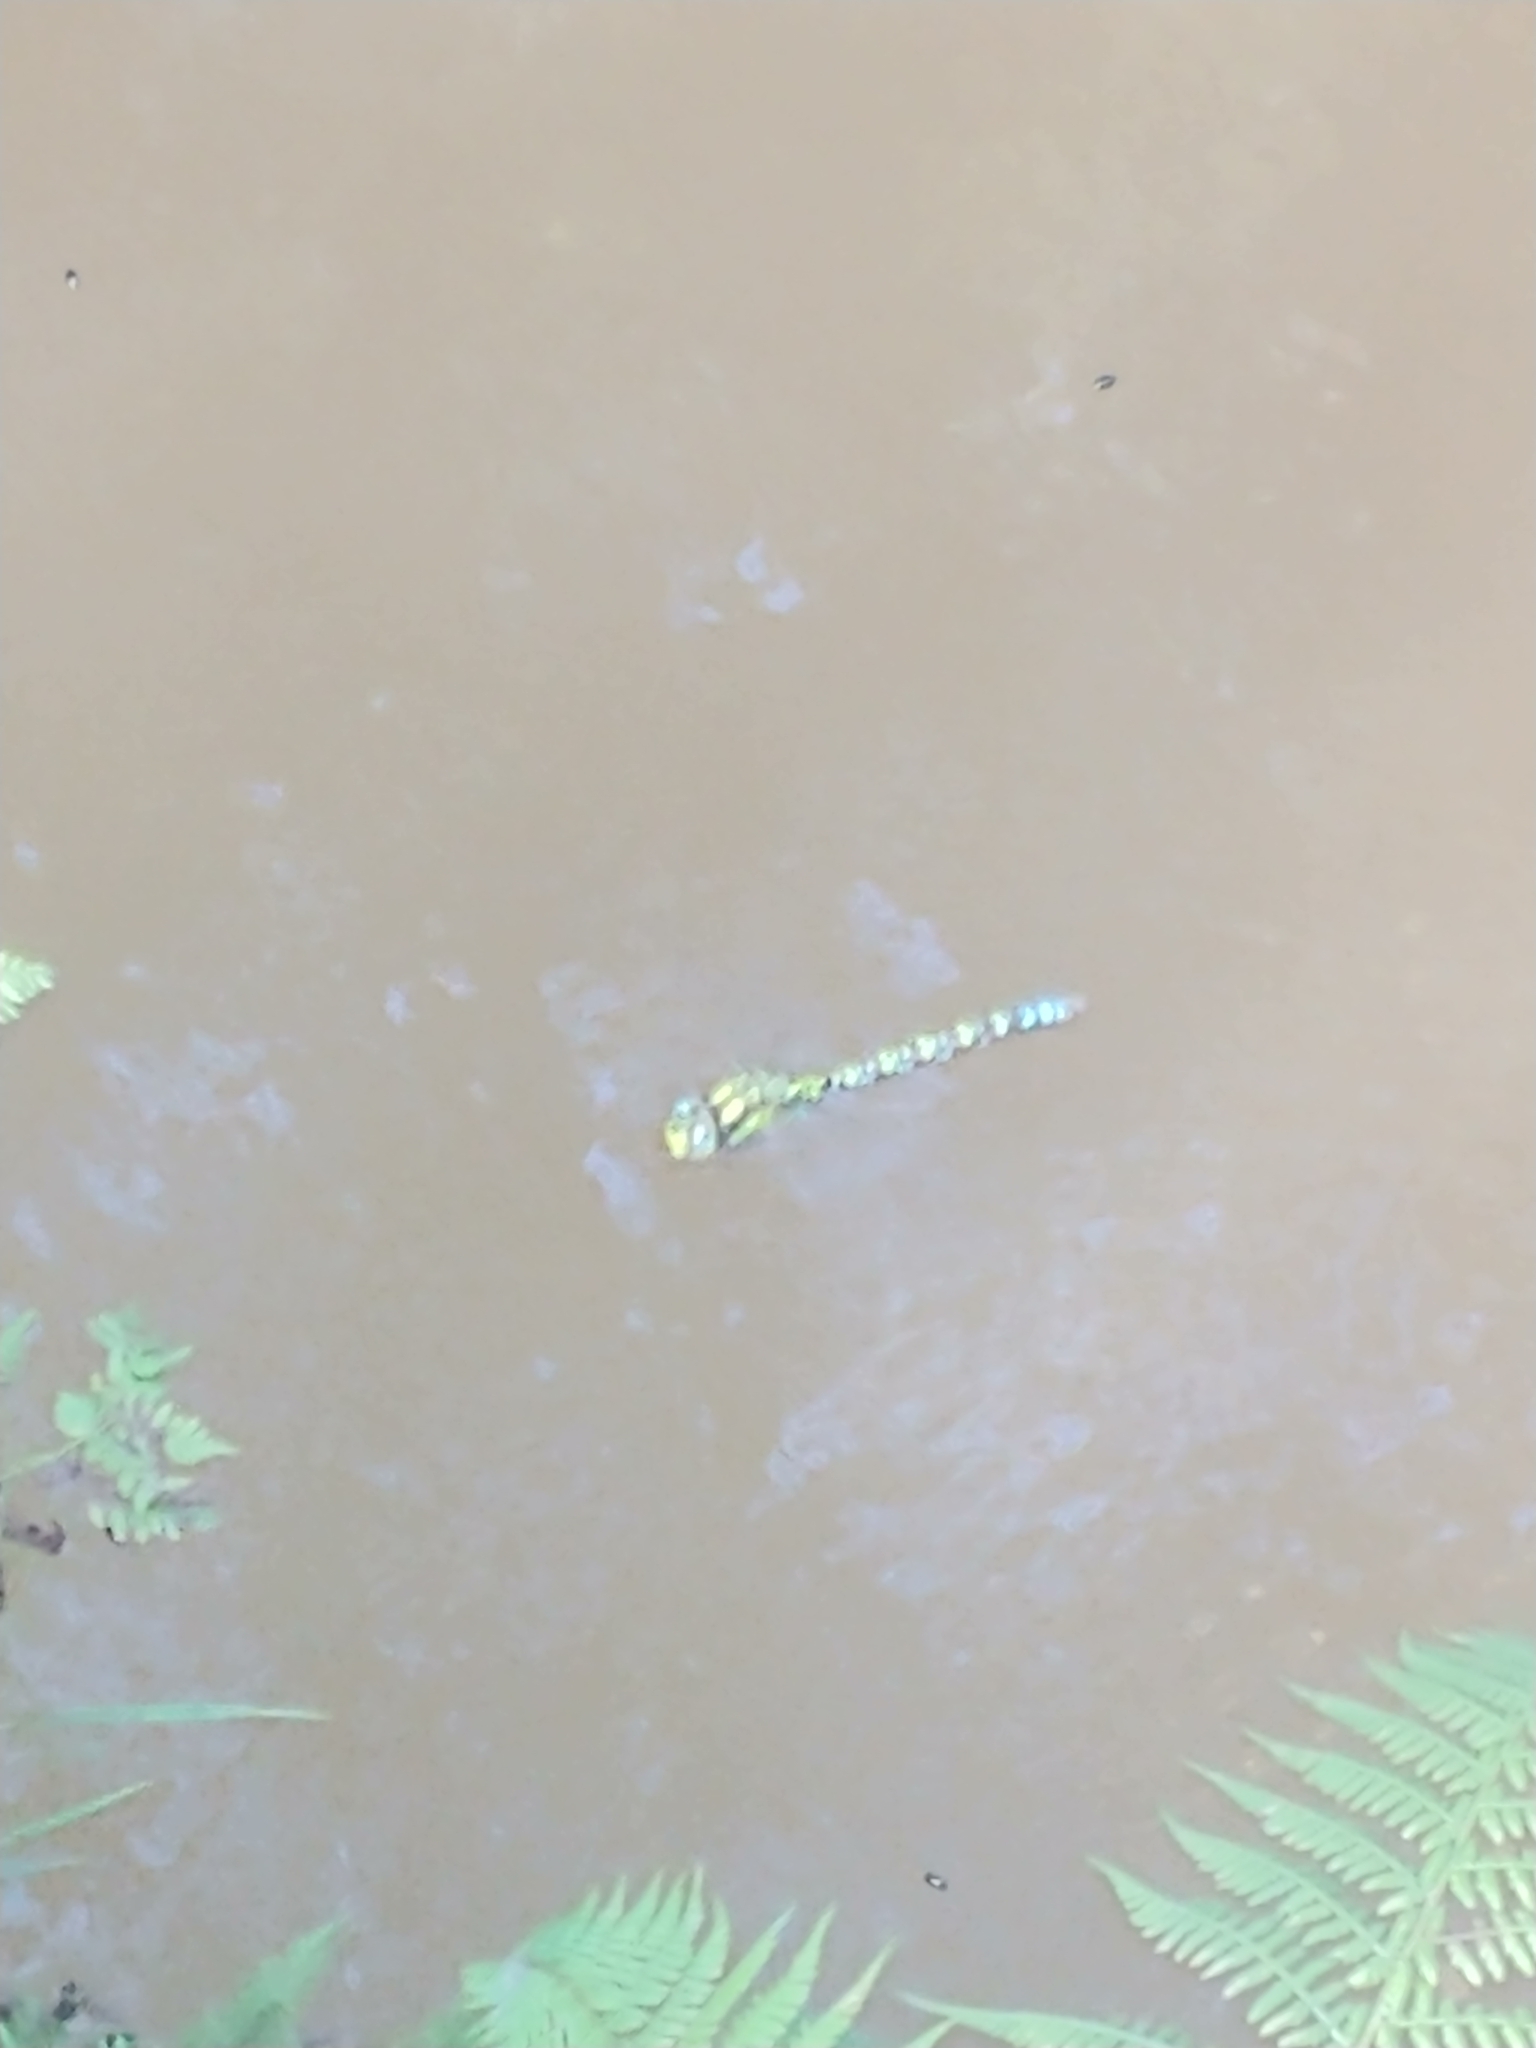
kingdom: Animalia
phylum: Arthropoda
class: Insecta
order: Odonata
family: Aeshnidae
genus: Aeshna
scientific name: Aeshna cyanea
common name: Southern hawker
